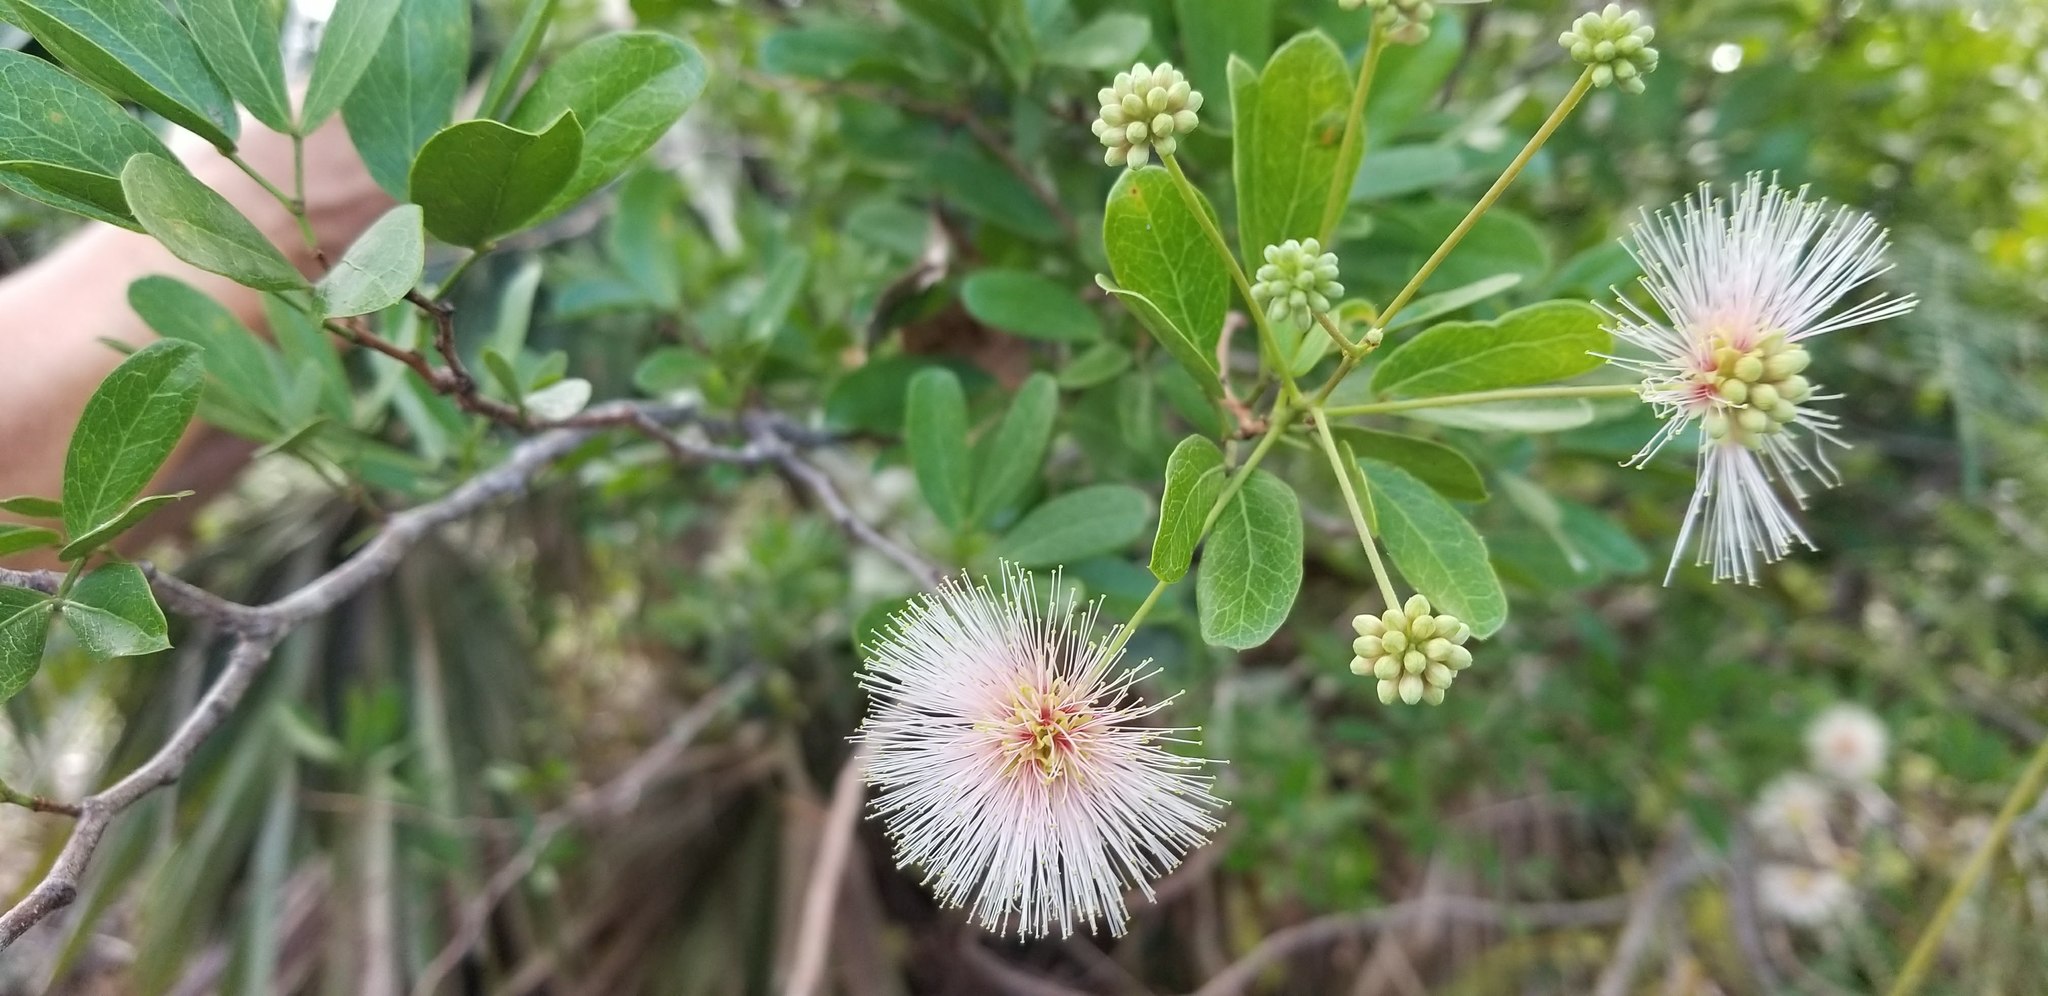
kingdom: Plantae
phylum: Tracheophyta
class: Magnoliopsida
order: Fabales
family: Fabaceae
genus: Pithecellobium
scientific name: Pithecellobium keyense
